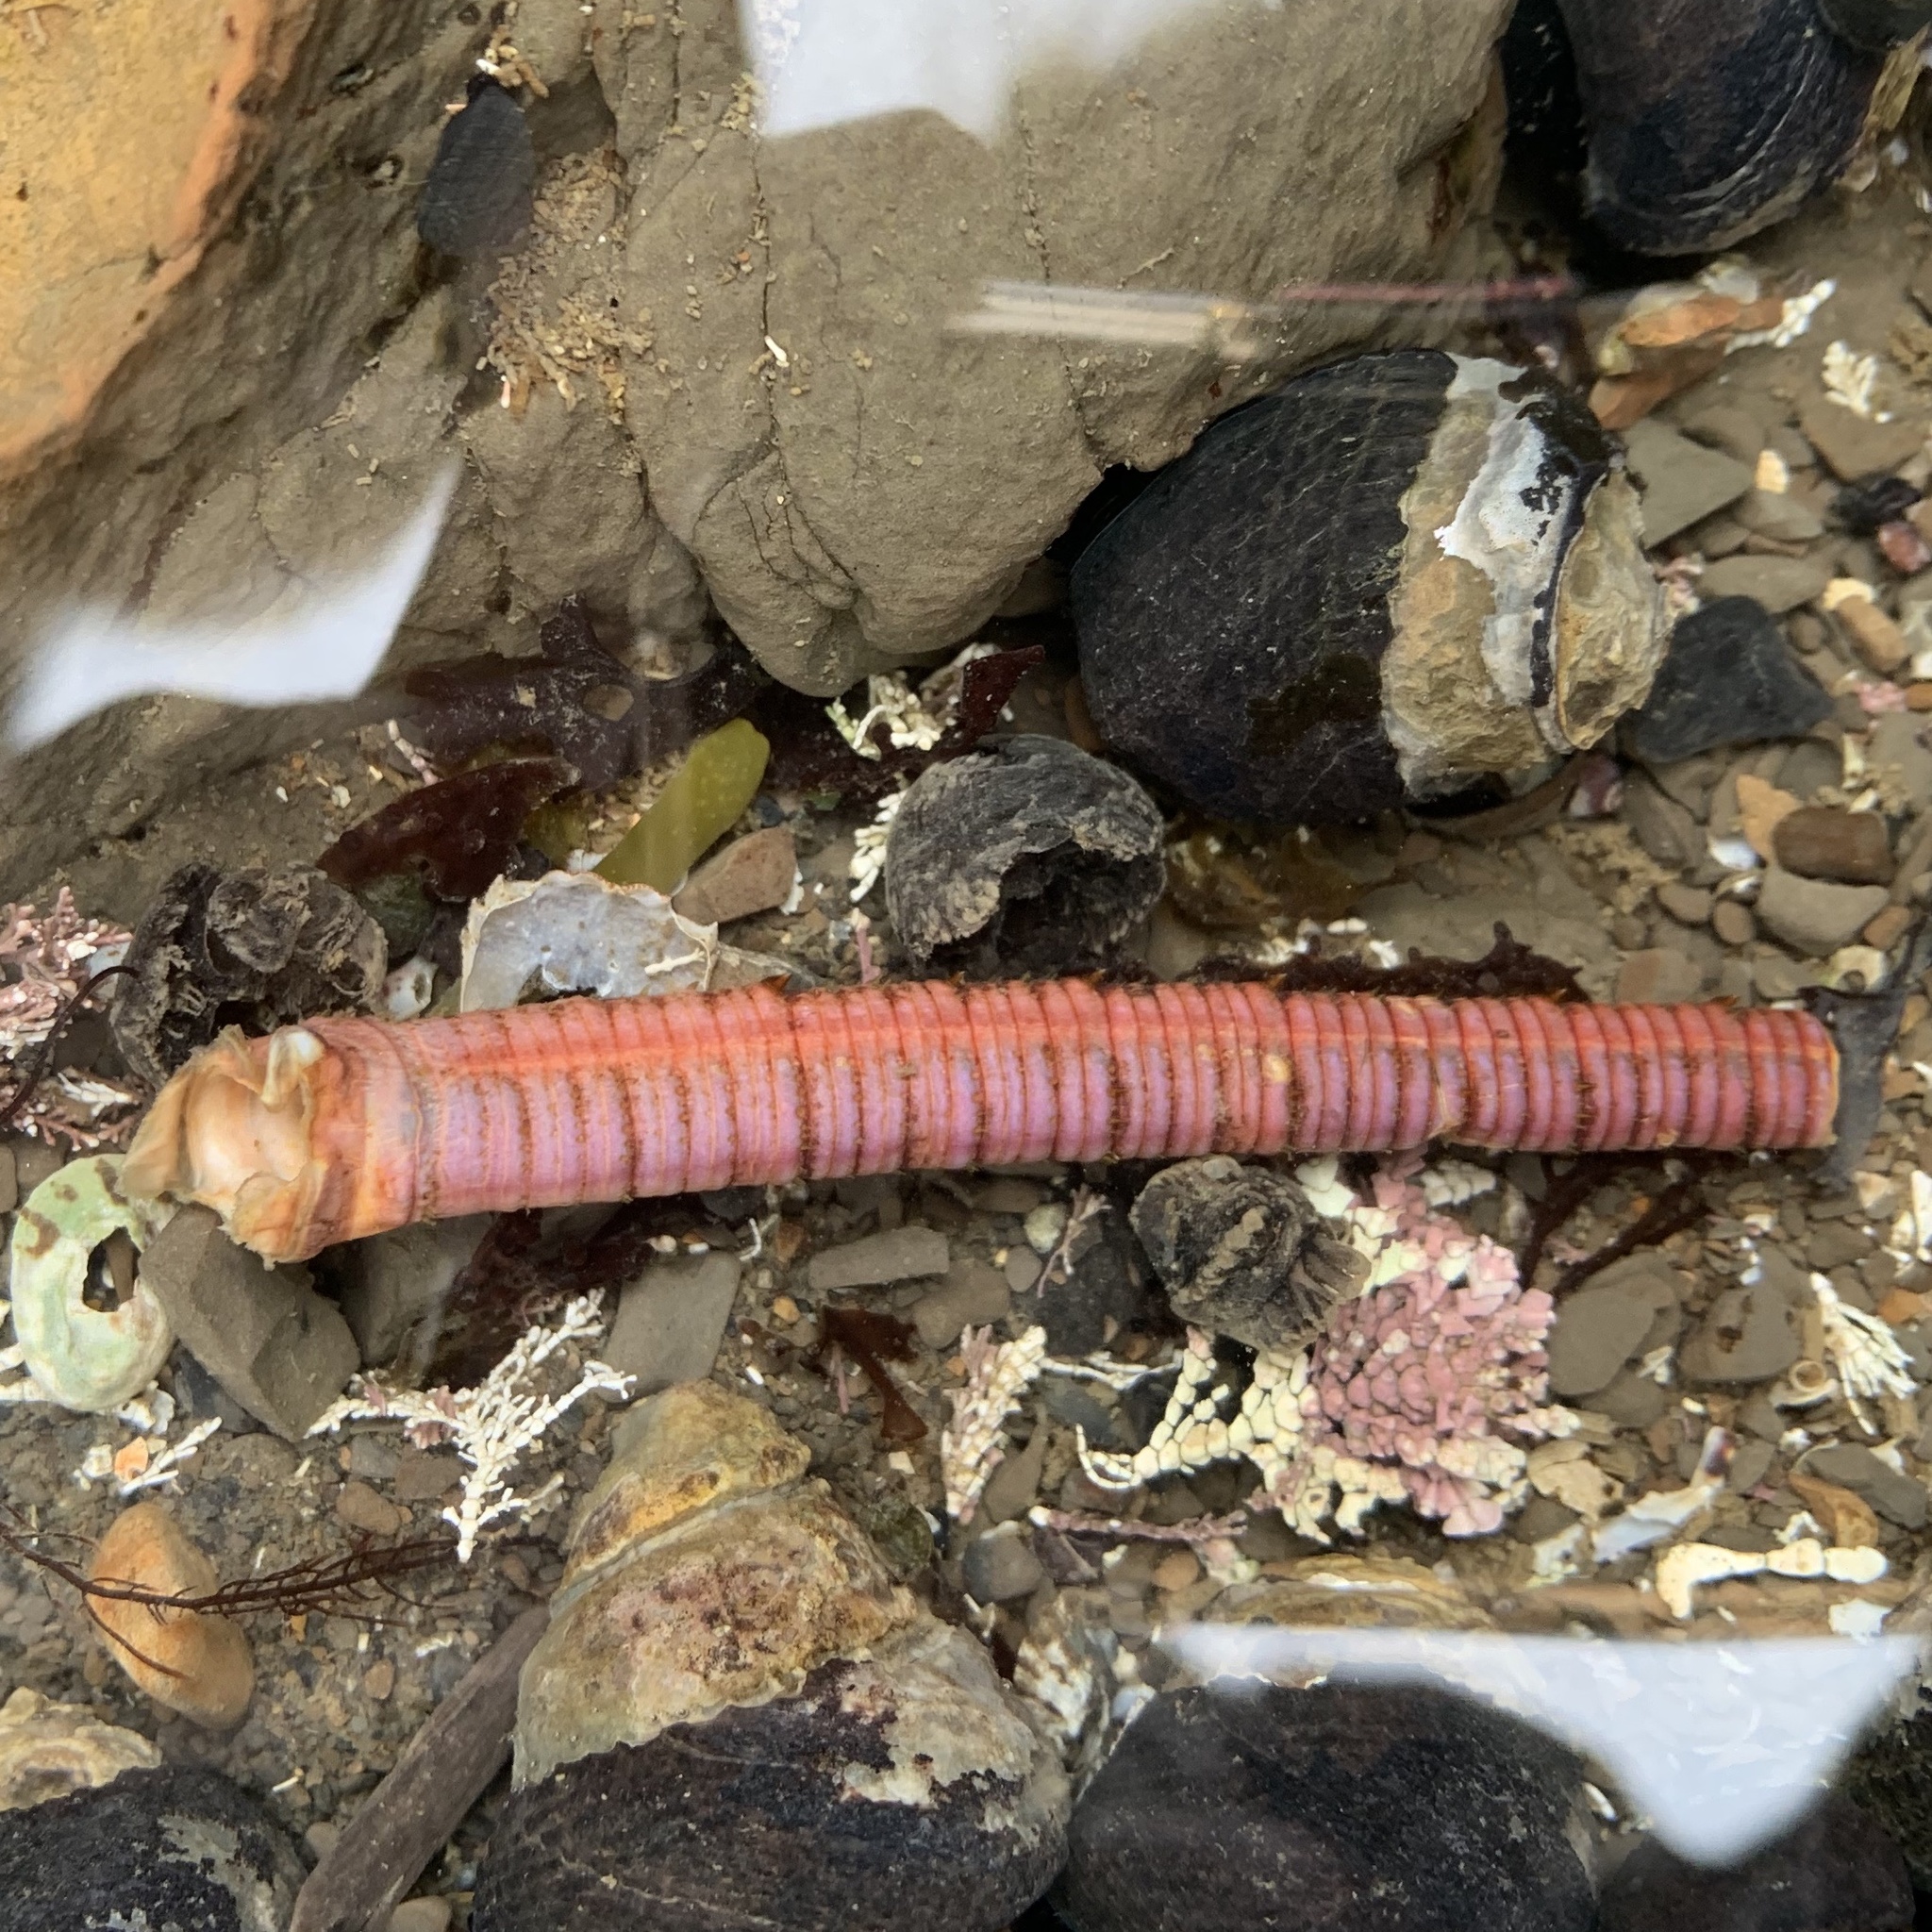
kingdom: Animalia
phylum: Arthropoda
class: Malacostraca
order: Decapoda
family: Palinuridae
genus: Panulirus
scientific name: Panulirus interruptus
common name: California spiny lobster
